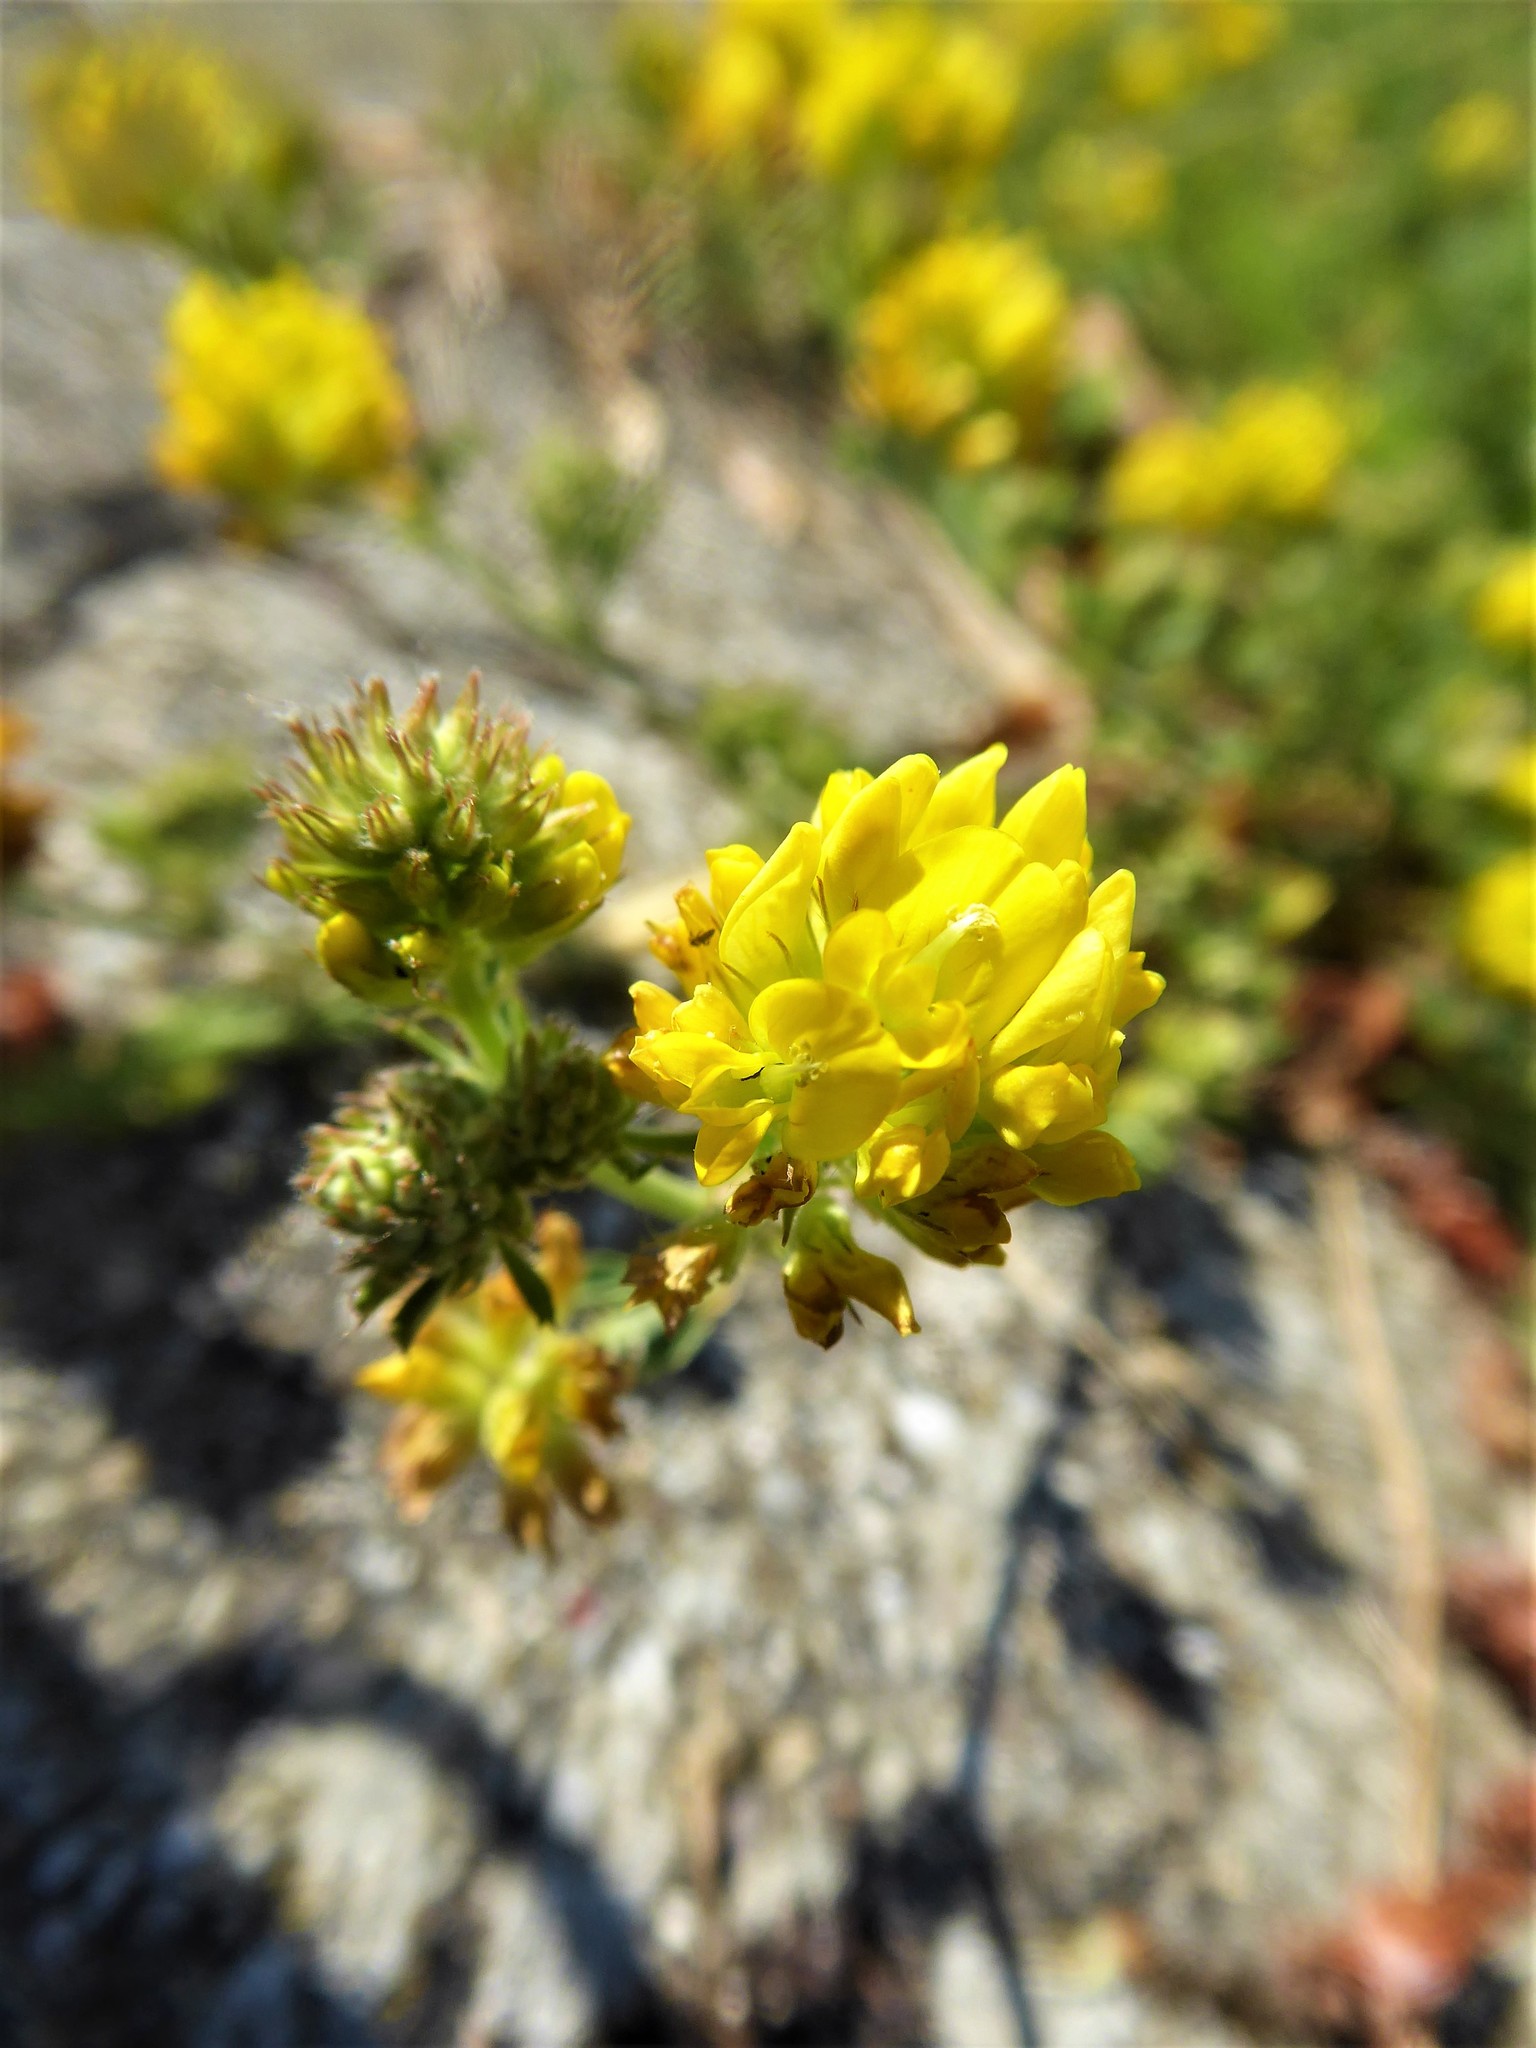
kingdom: Plantae
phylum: Tracheophyta
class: Magnoliopsida
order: Fabales
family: Fabaceae
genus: Medicago
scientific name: Medicago falcata
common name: Sickle medick
